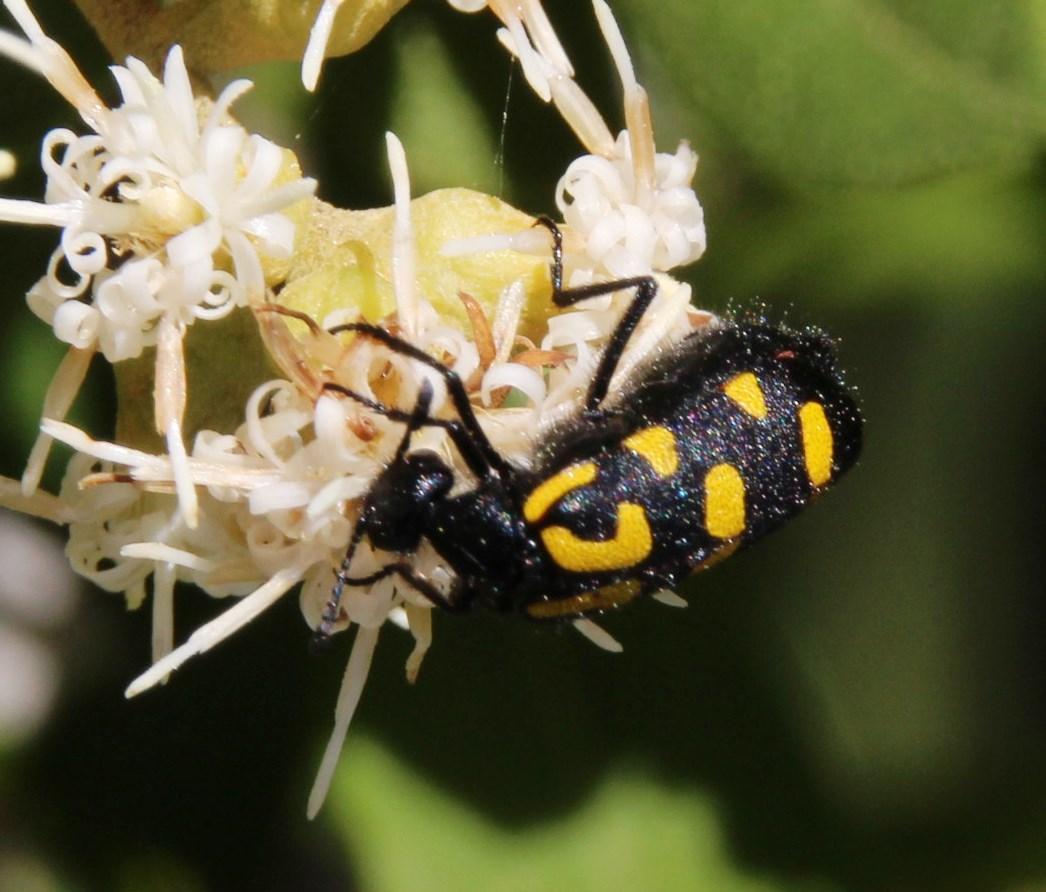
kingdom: Animalia
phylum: Arthropoda
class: Insecta
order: Coleoptera
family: Meloidae
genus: Ceroctis
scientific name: Ceroctis capensis
